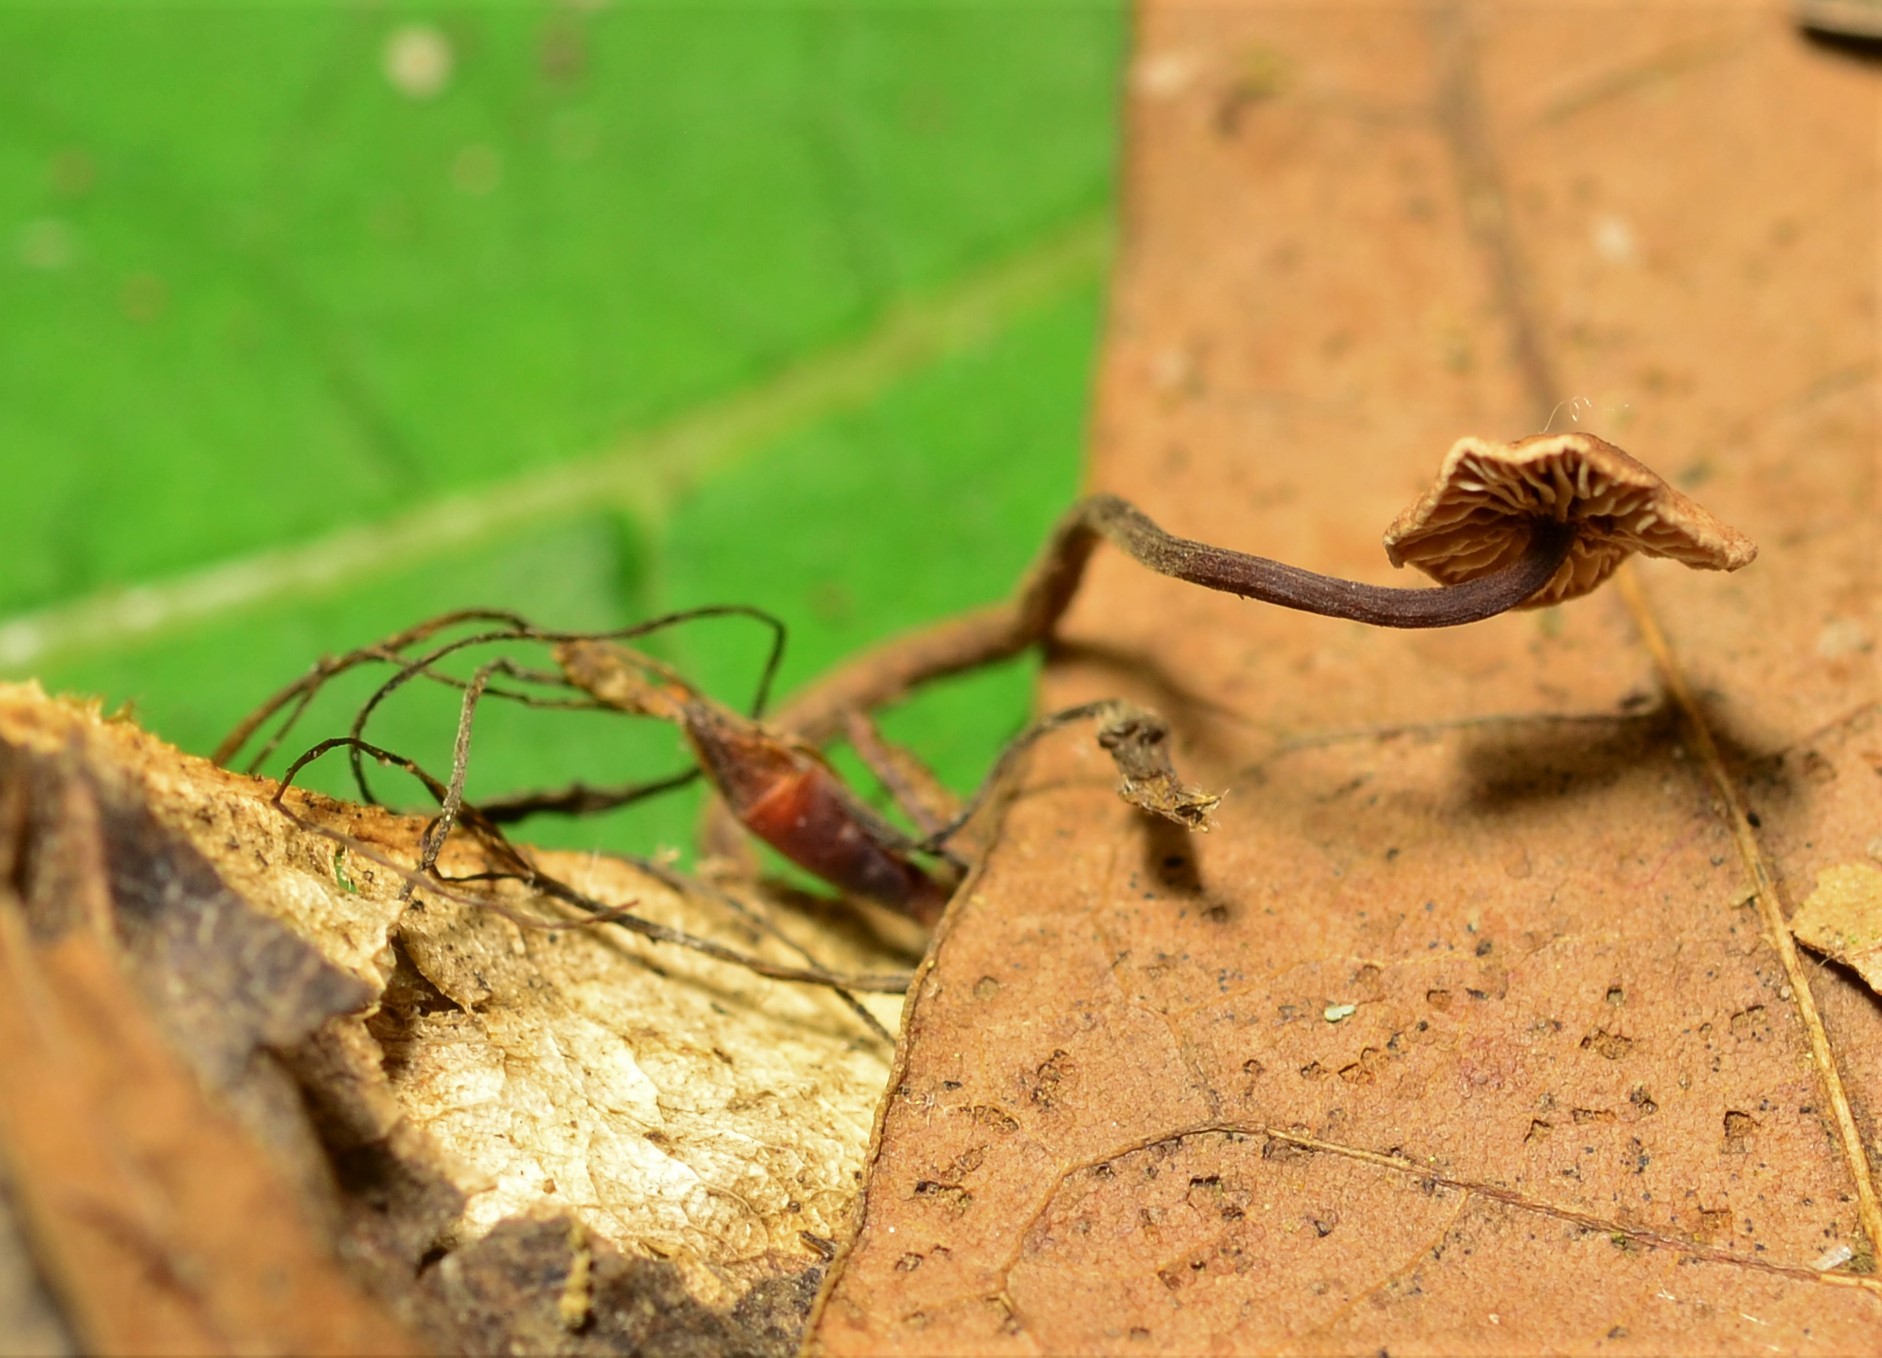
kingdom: Fungi
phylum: Basidiomycota
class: Agaricomycetes
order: Agaricales
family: Omphalotaceae
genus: Gymnopus
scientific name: Gymnopus semihirtipes
